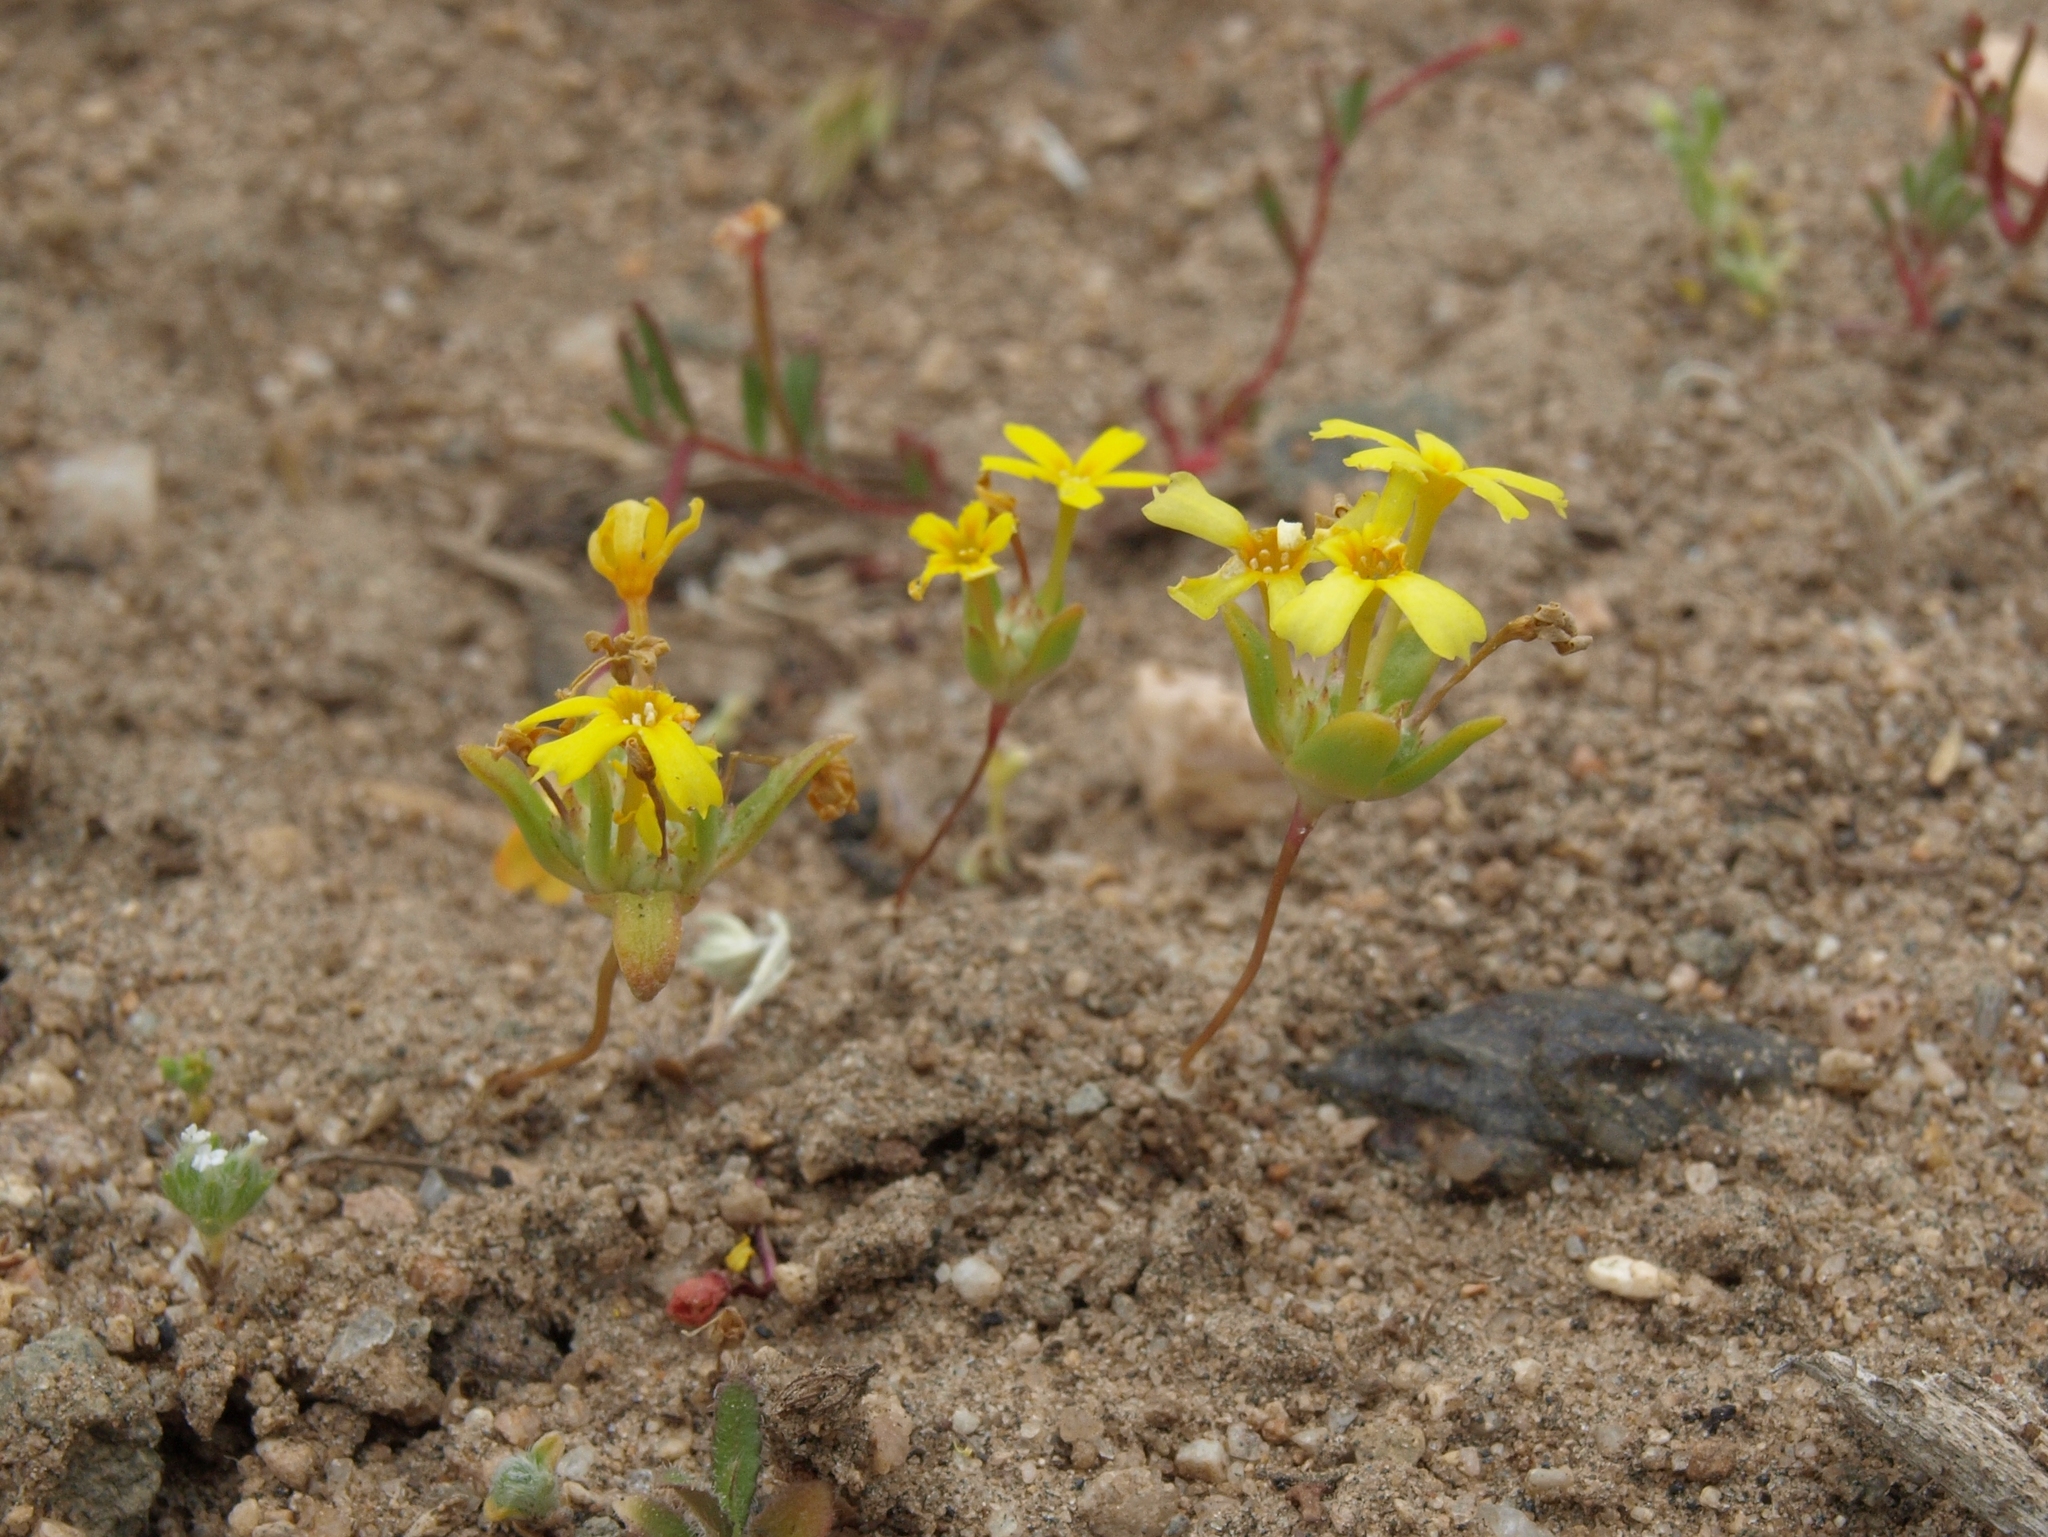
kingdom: Plantae
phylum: Tracheophyta
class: Magnoliopsida
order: Ericales
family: Polemoniaceae
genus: Gymnosteris
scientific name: Gymnosteris nudicaulis
